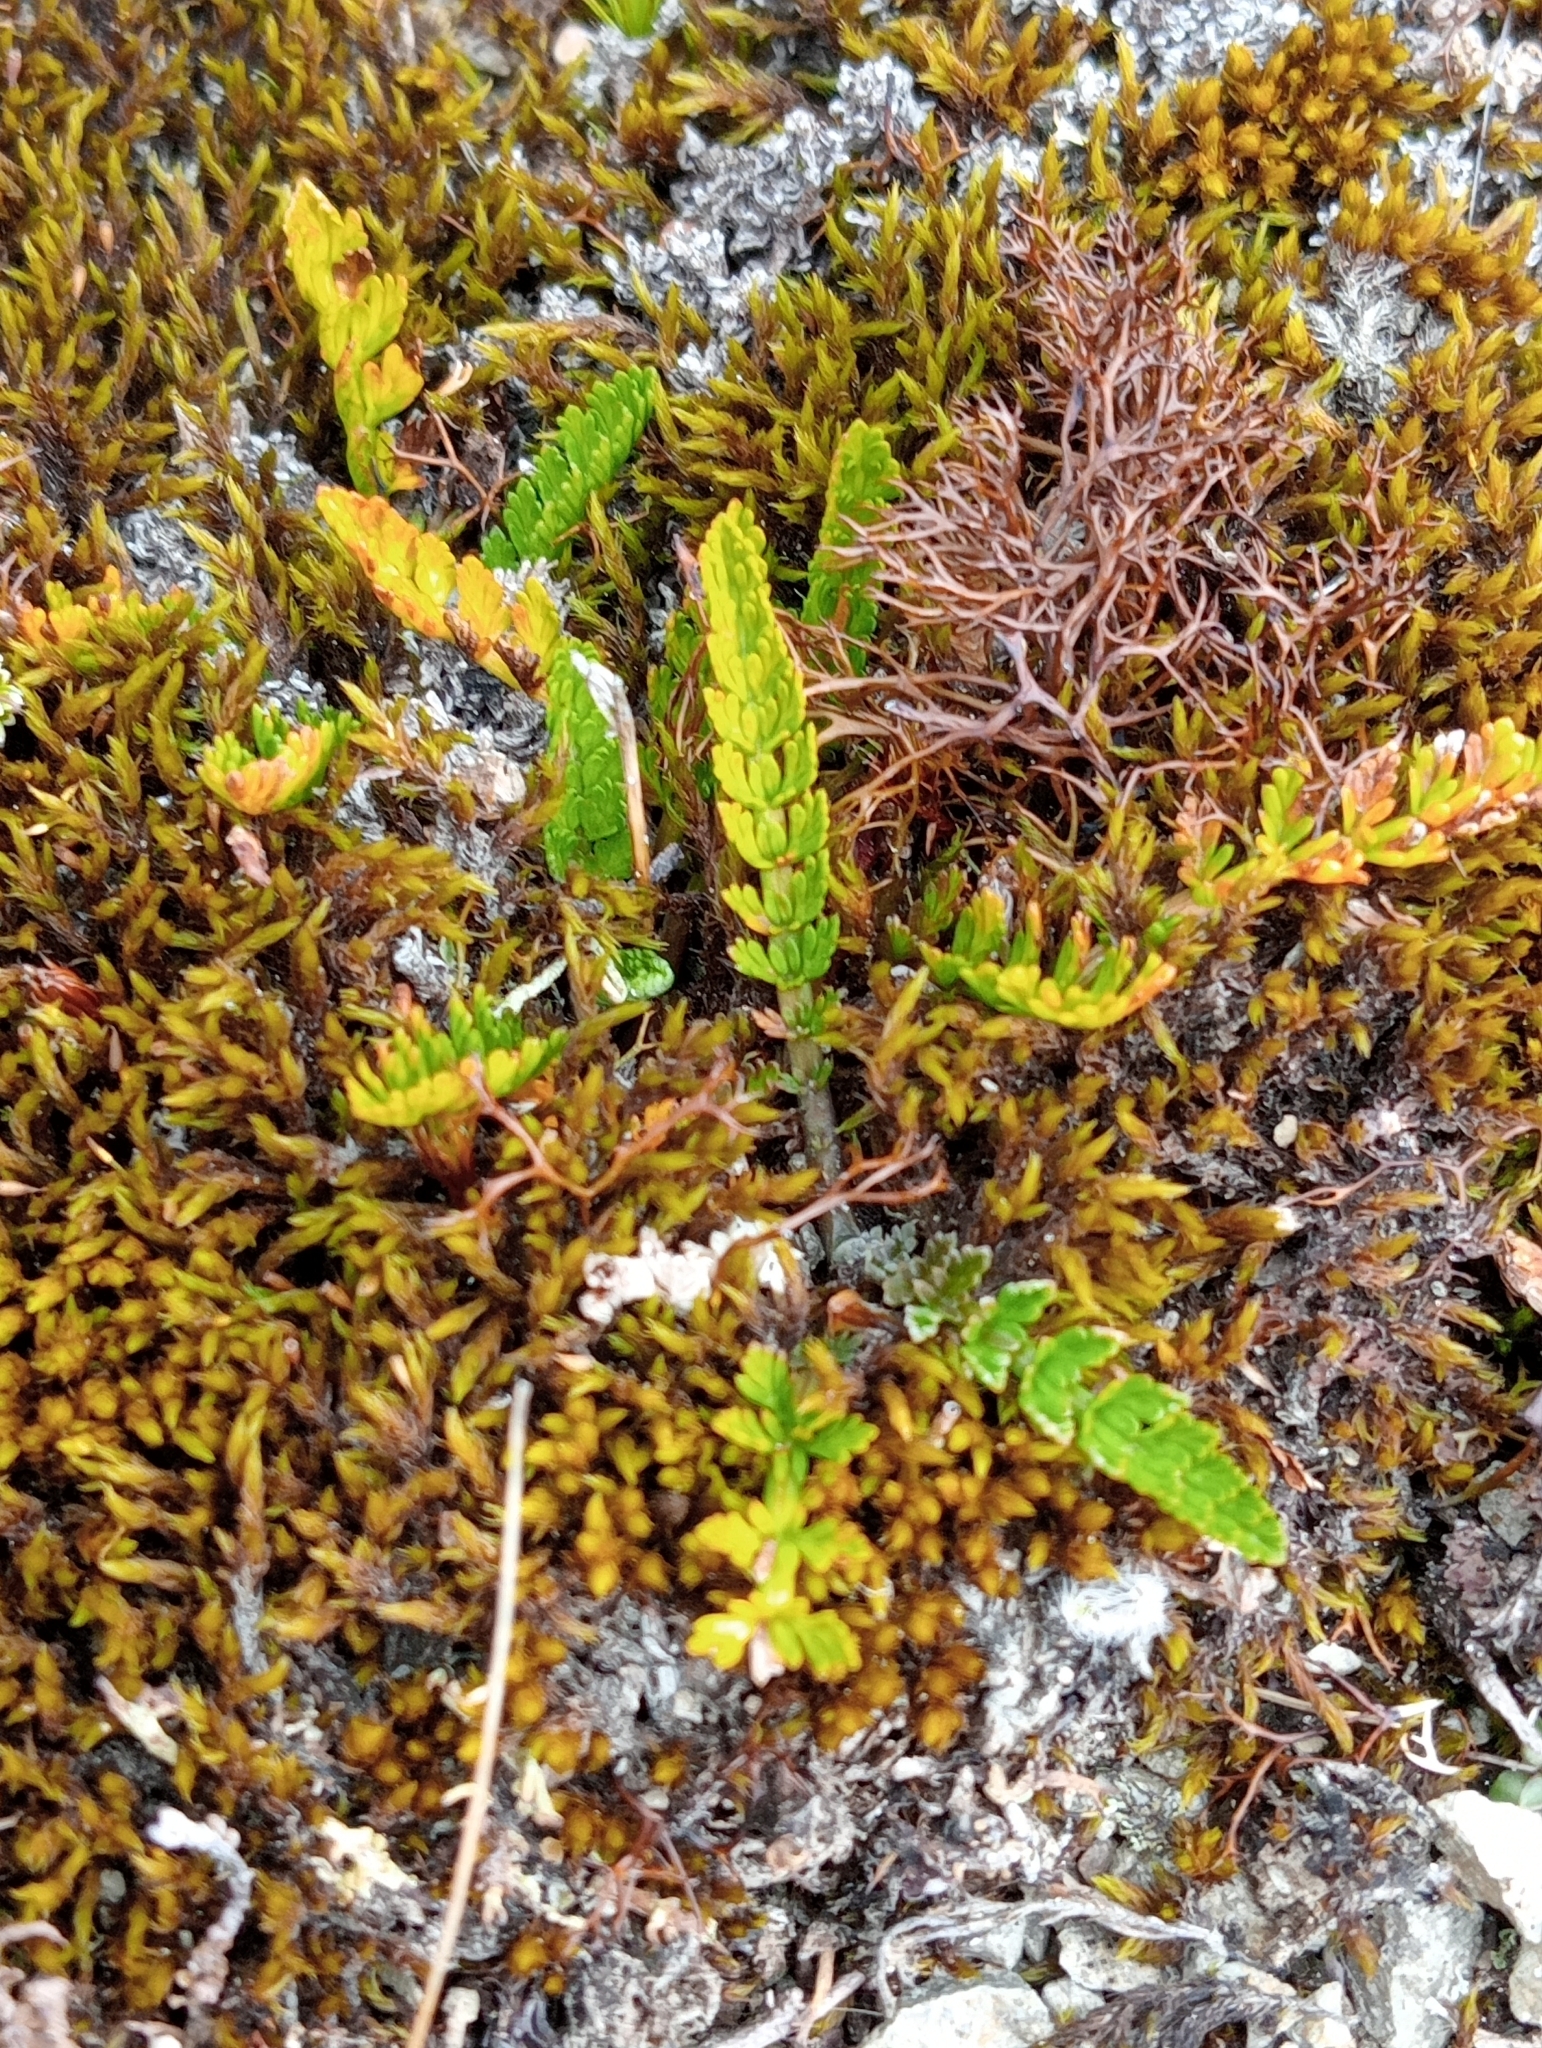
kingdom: Plantae
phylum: Tracheophyta
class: Magnoliopsida
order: Apiales
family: Apiaceae
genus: Anisotome
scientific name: Anisotome aromatica
